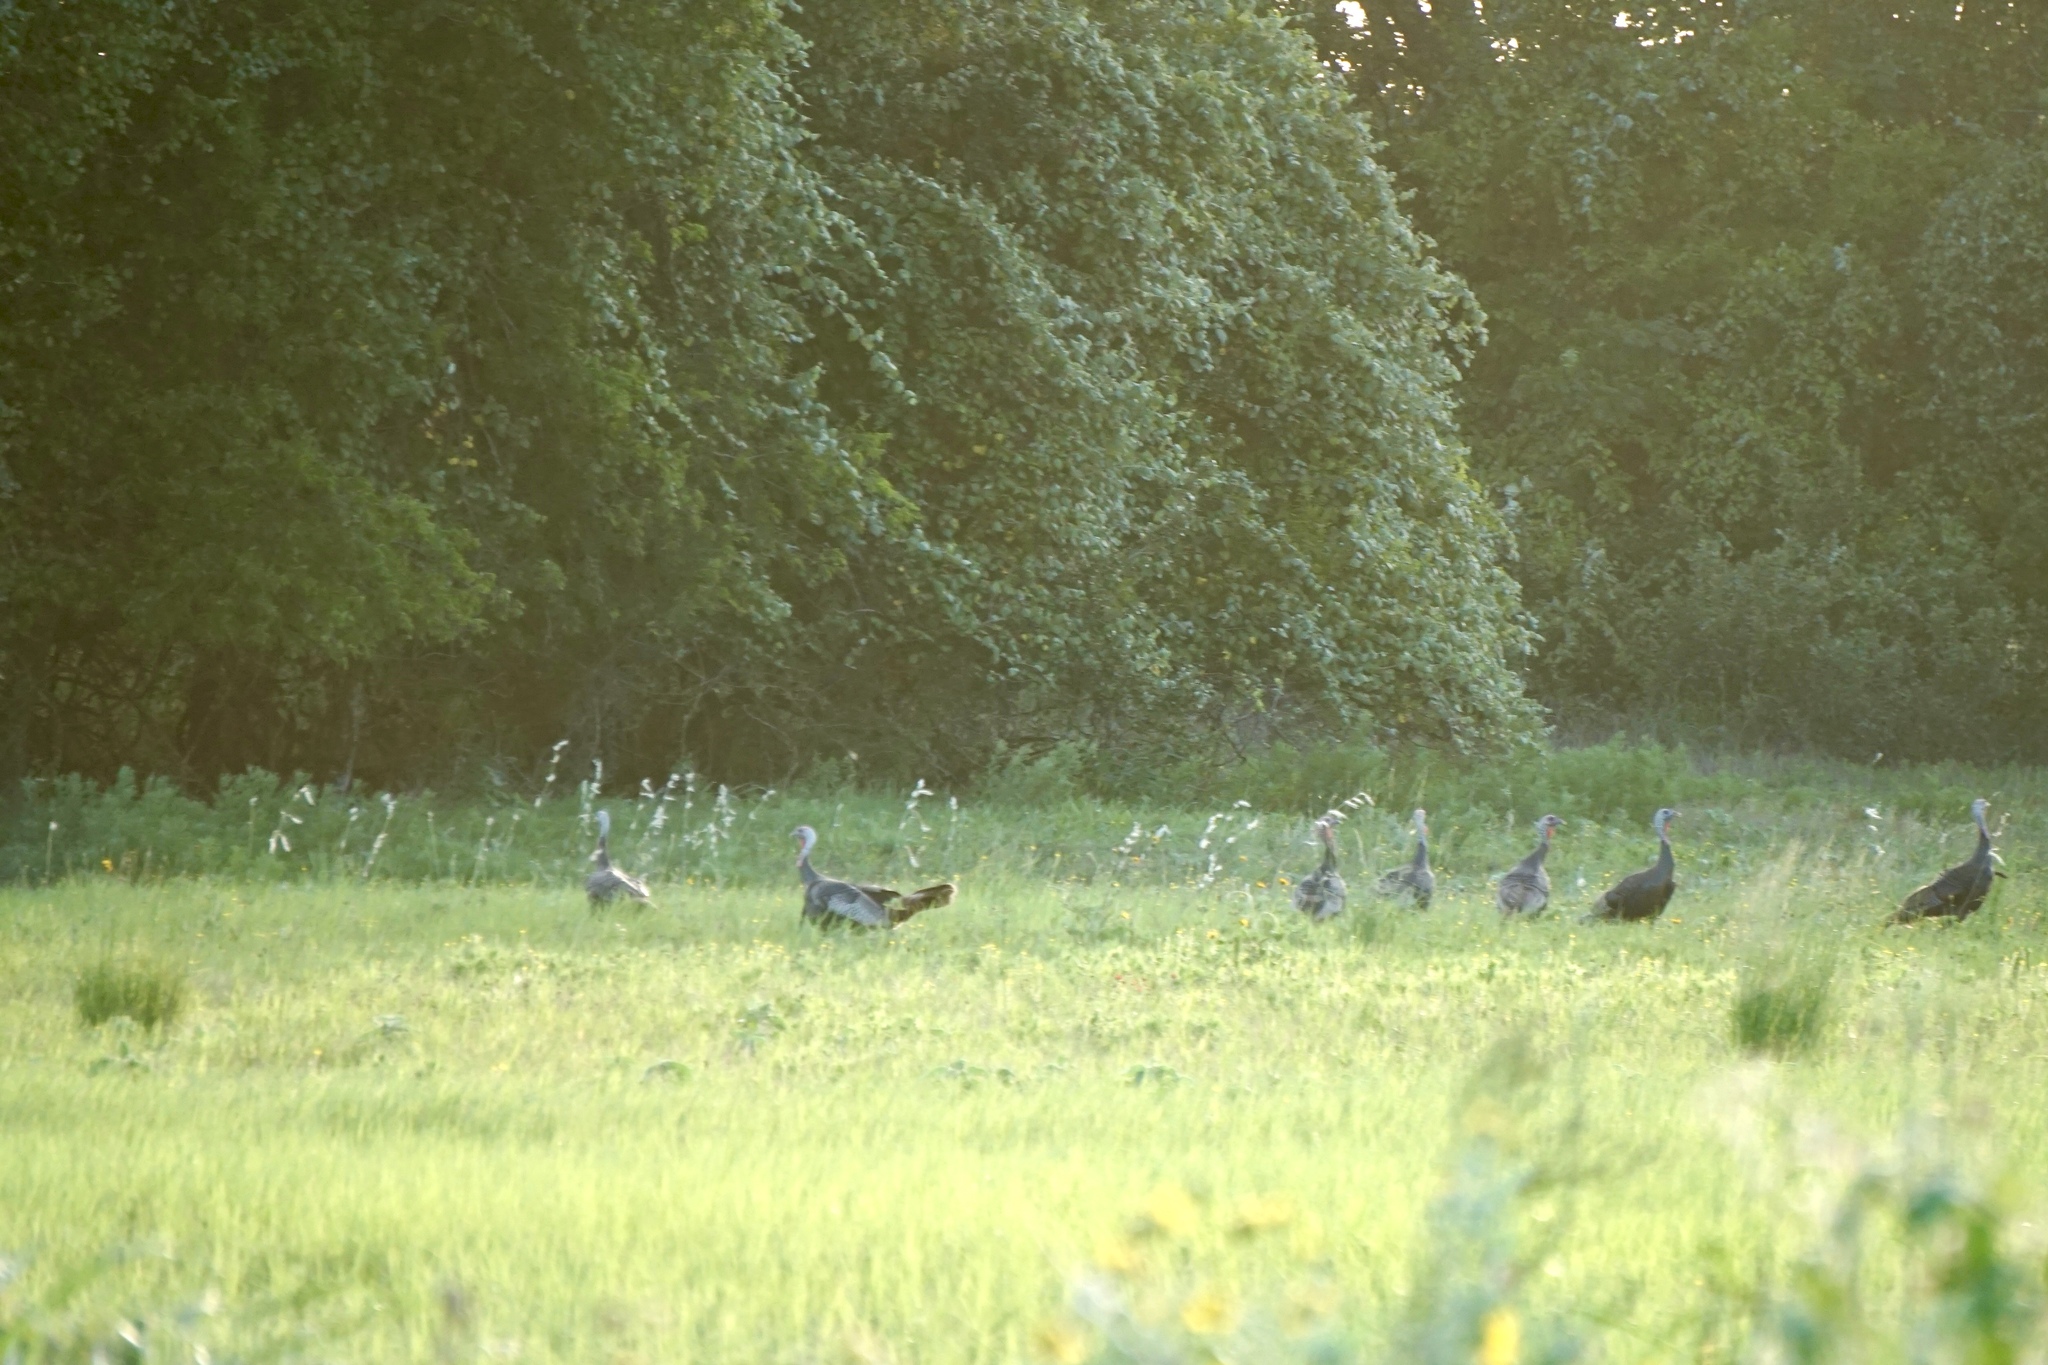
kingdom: Animalia
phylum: Chordata
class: Aves
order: Galliformes
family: Phasianidae
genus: Meleagris
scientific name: Meleagris gallopavo
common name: Wild turkey
